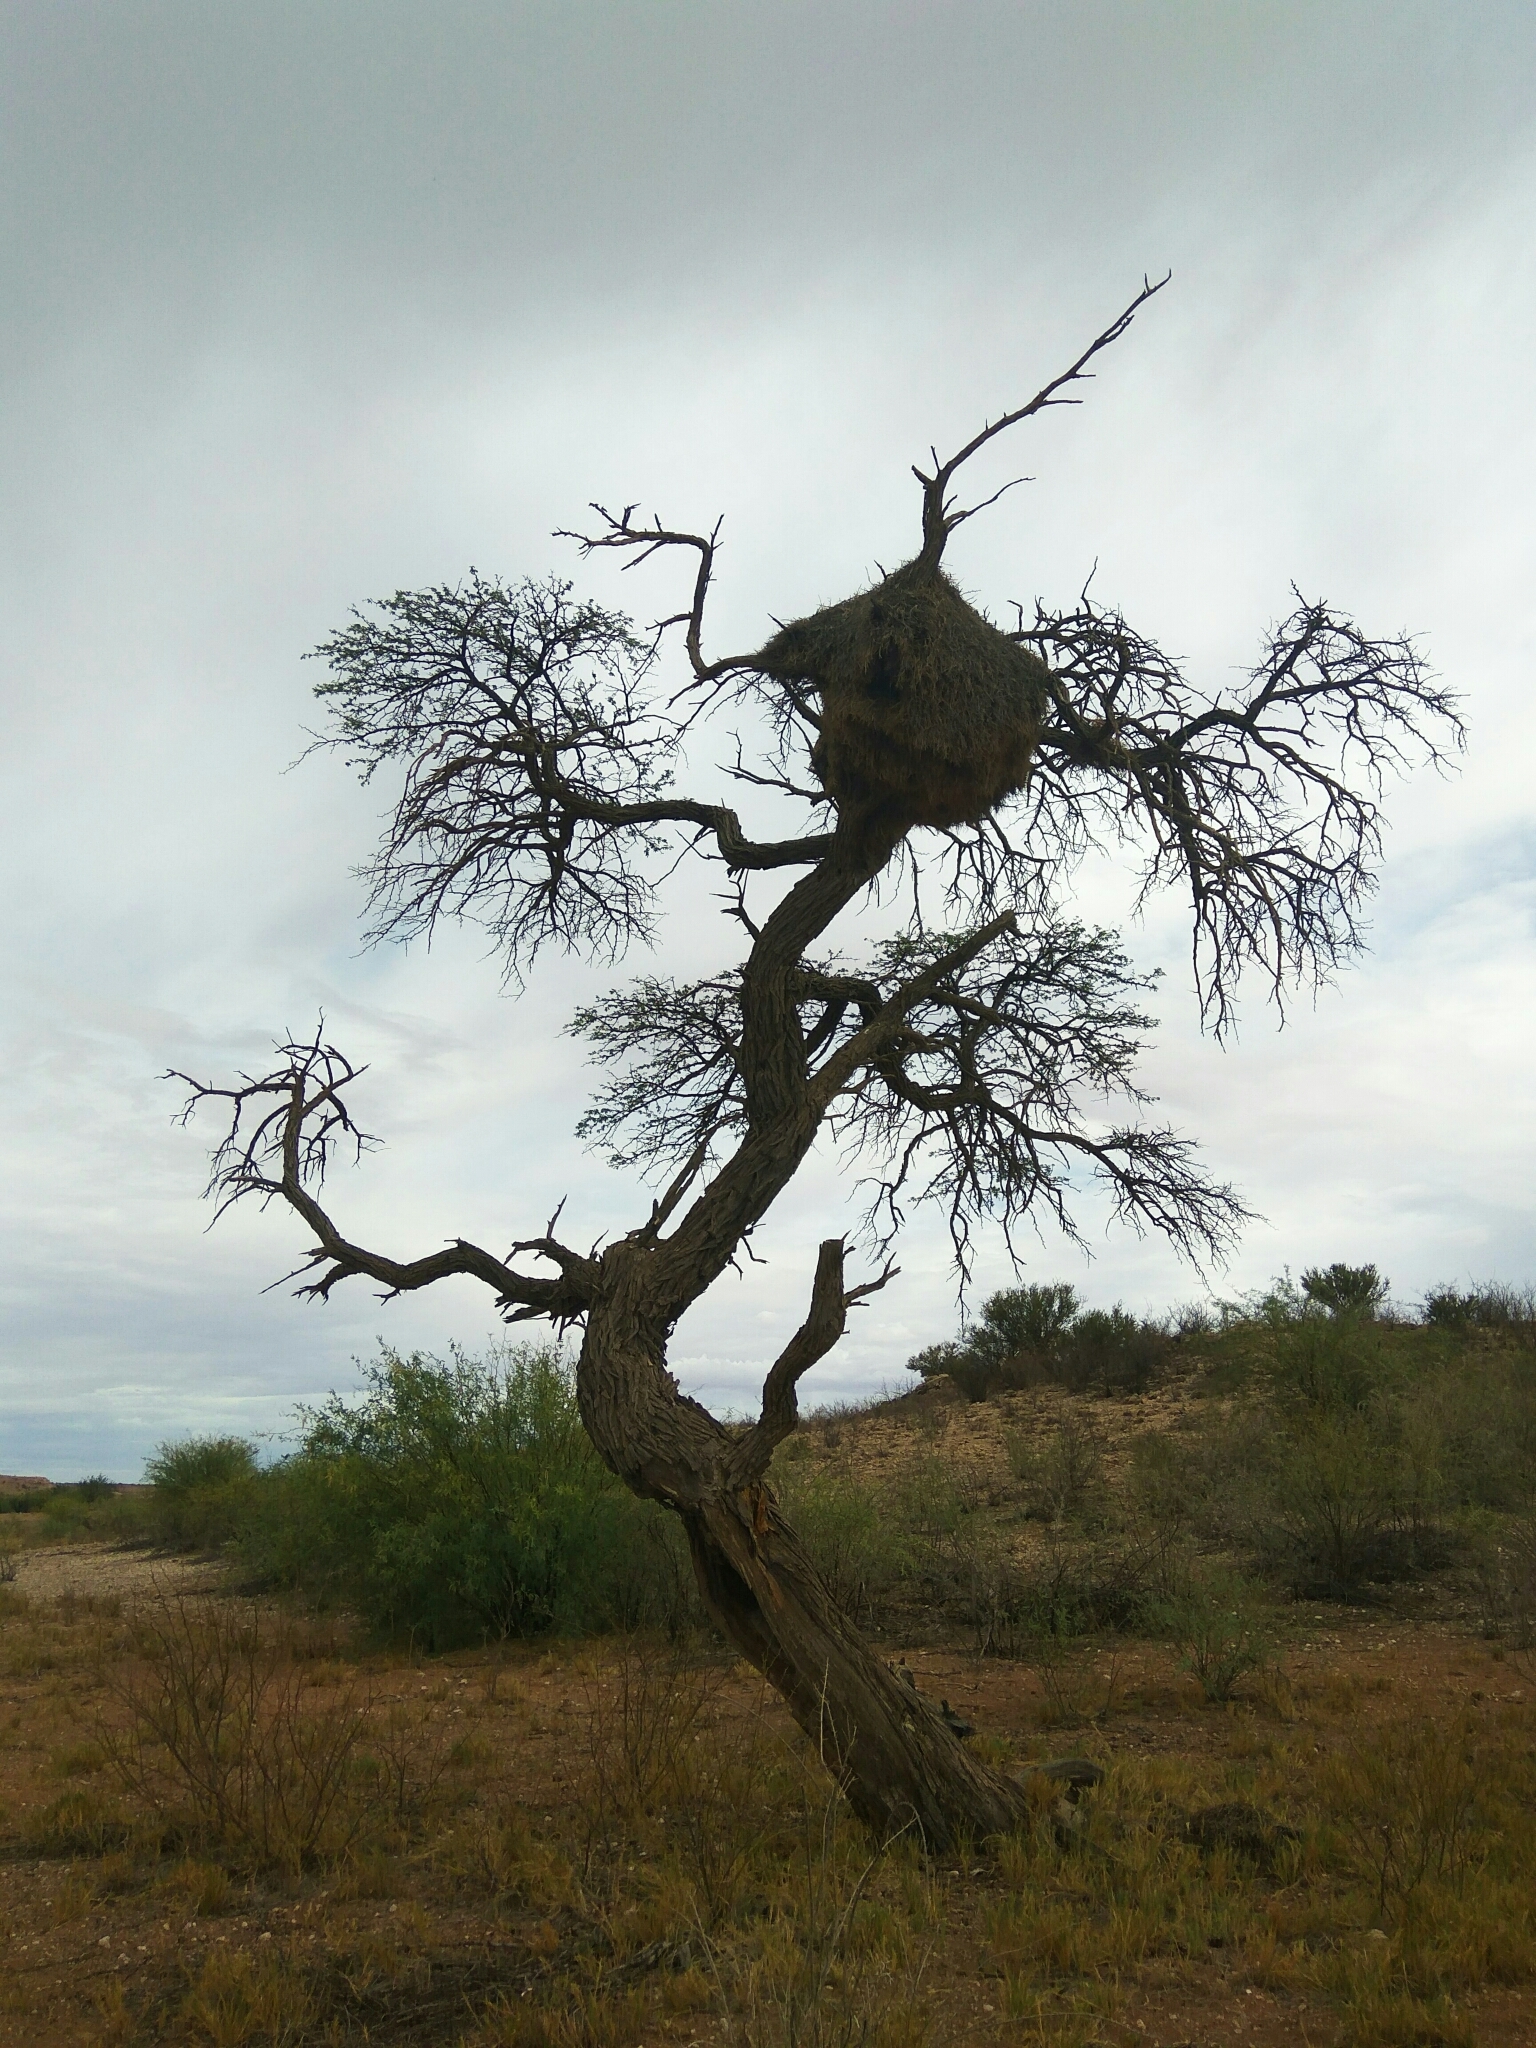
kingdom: Plantae
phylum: Tracheophyta
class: Magnoliopsida
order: Fabales
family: Fabaceae
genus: Vachellia
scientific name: Vachellia erioloba
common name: Camel thorn
